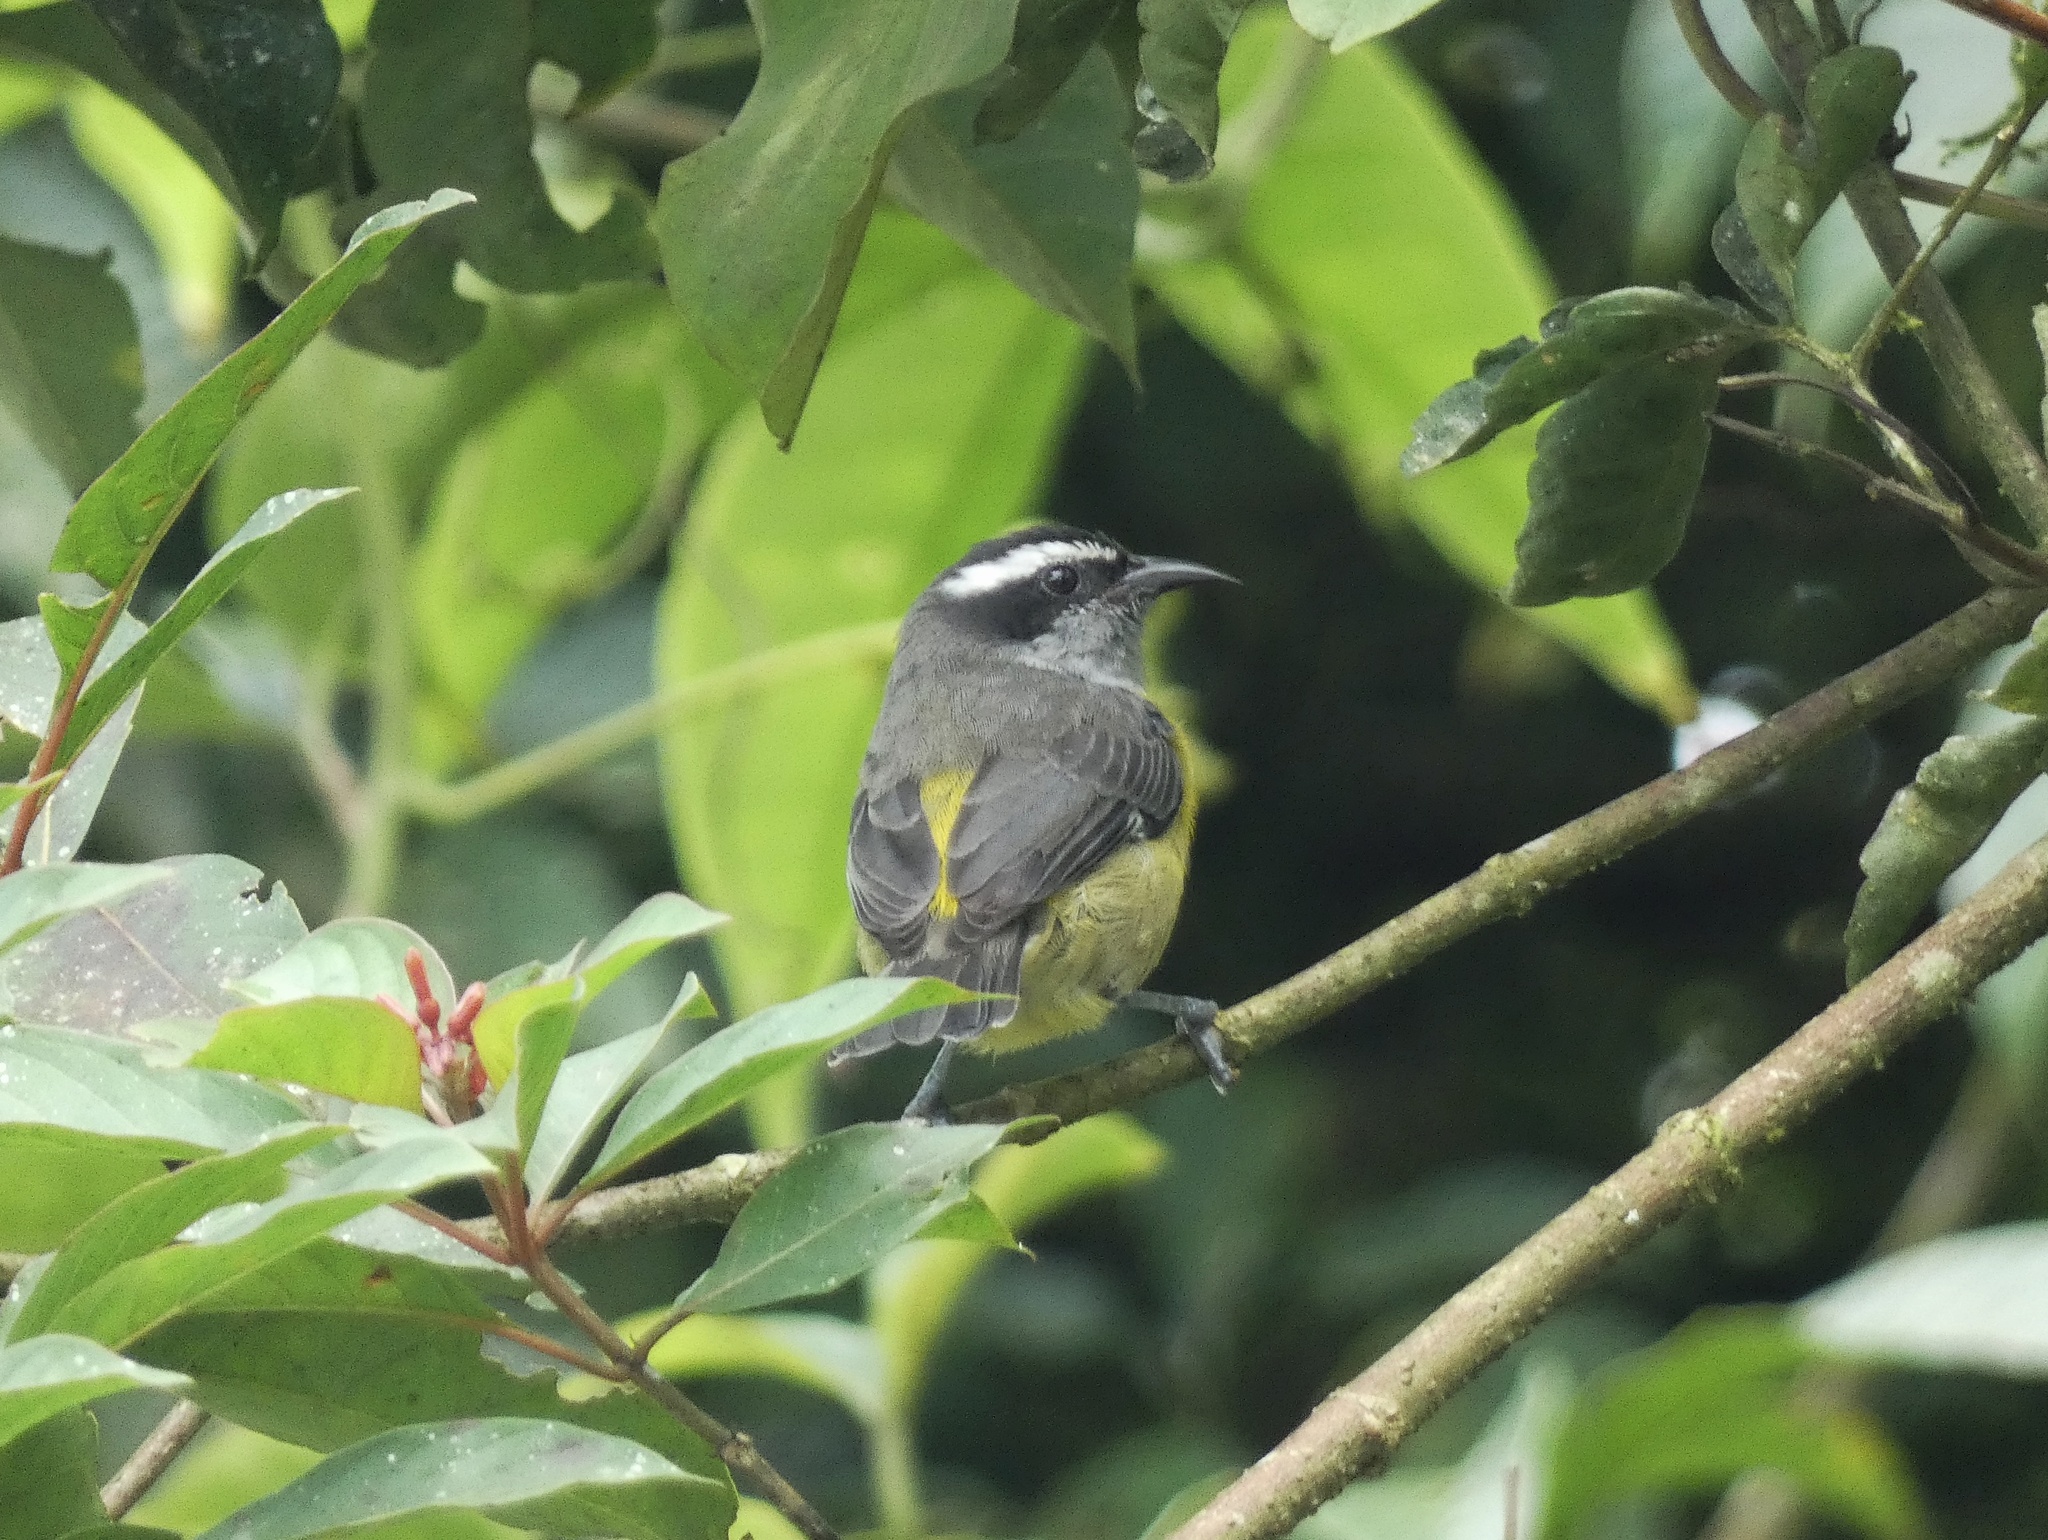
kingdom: Animalia
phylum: Chordata
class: Aves
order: Passeriformes
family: Thraupidae
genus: Coereba
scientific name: Coereba flaveola
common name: Bananaquit
